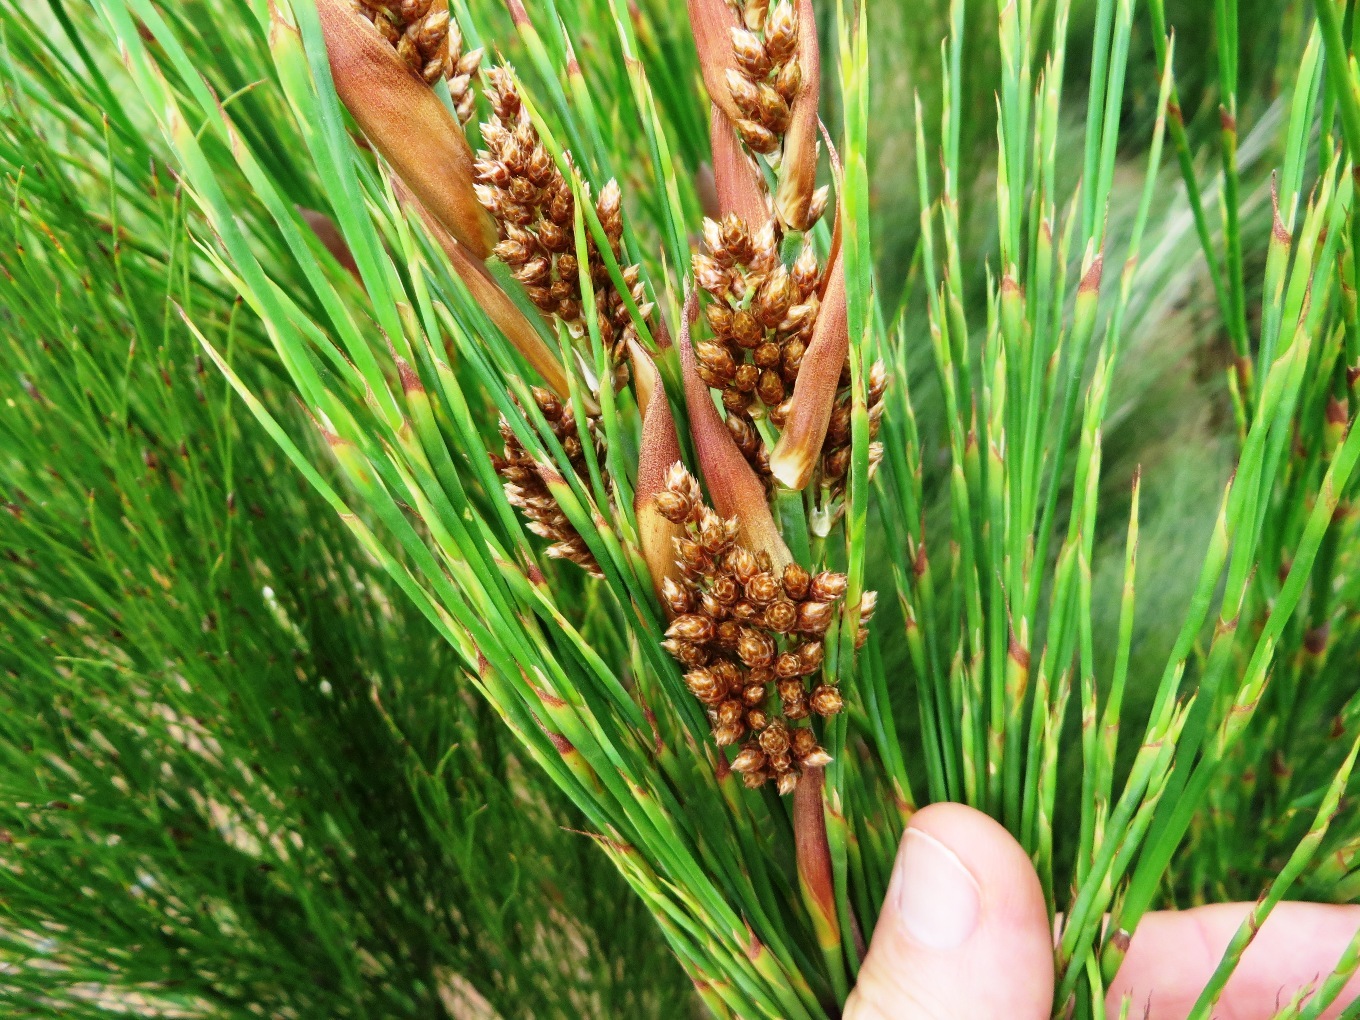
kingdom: Plantae
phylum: Tracheophyta
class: Liliopsida
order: Poales
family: Restionaceae
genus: Cannomois
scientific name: Cannomois virgata
